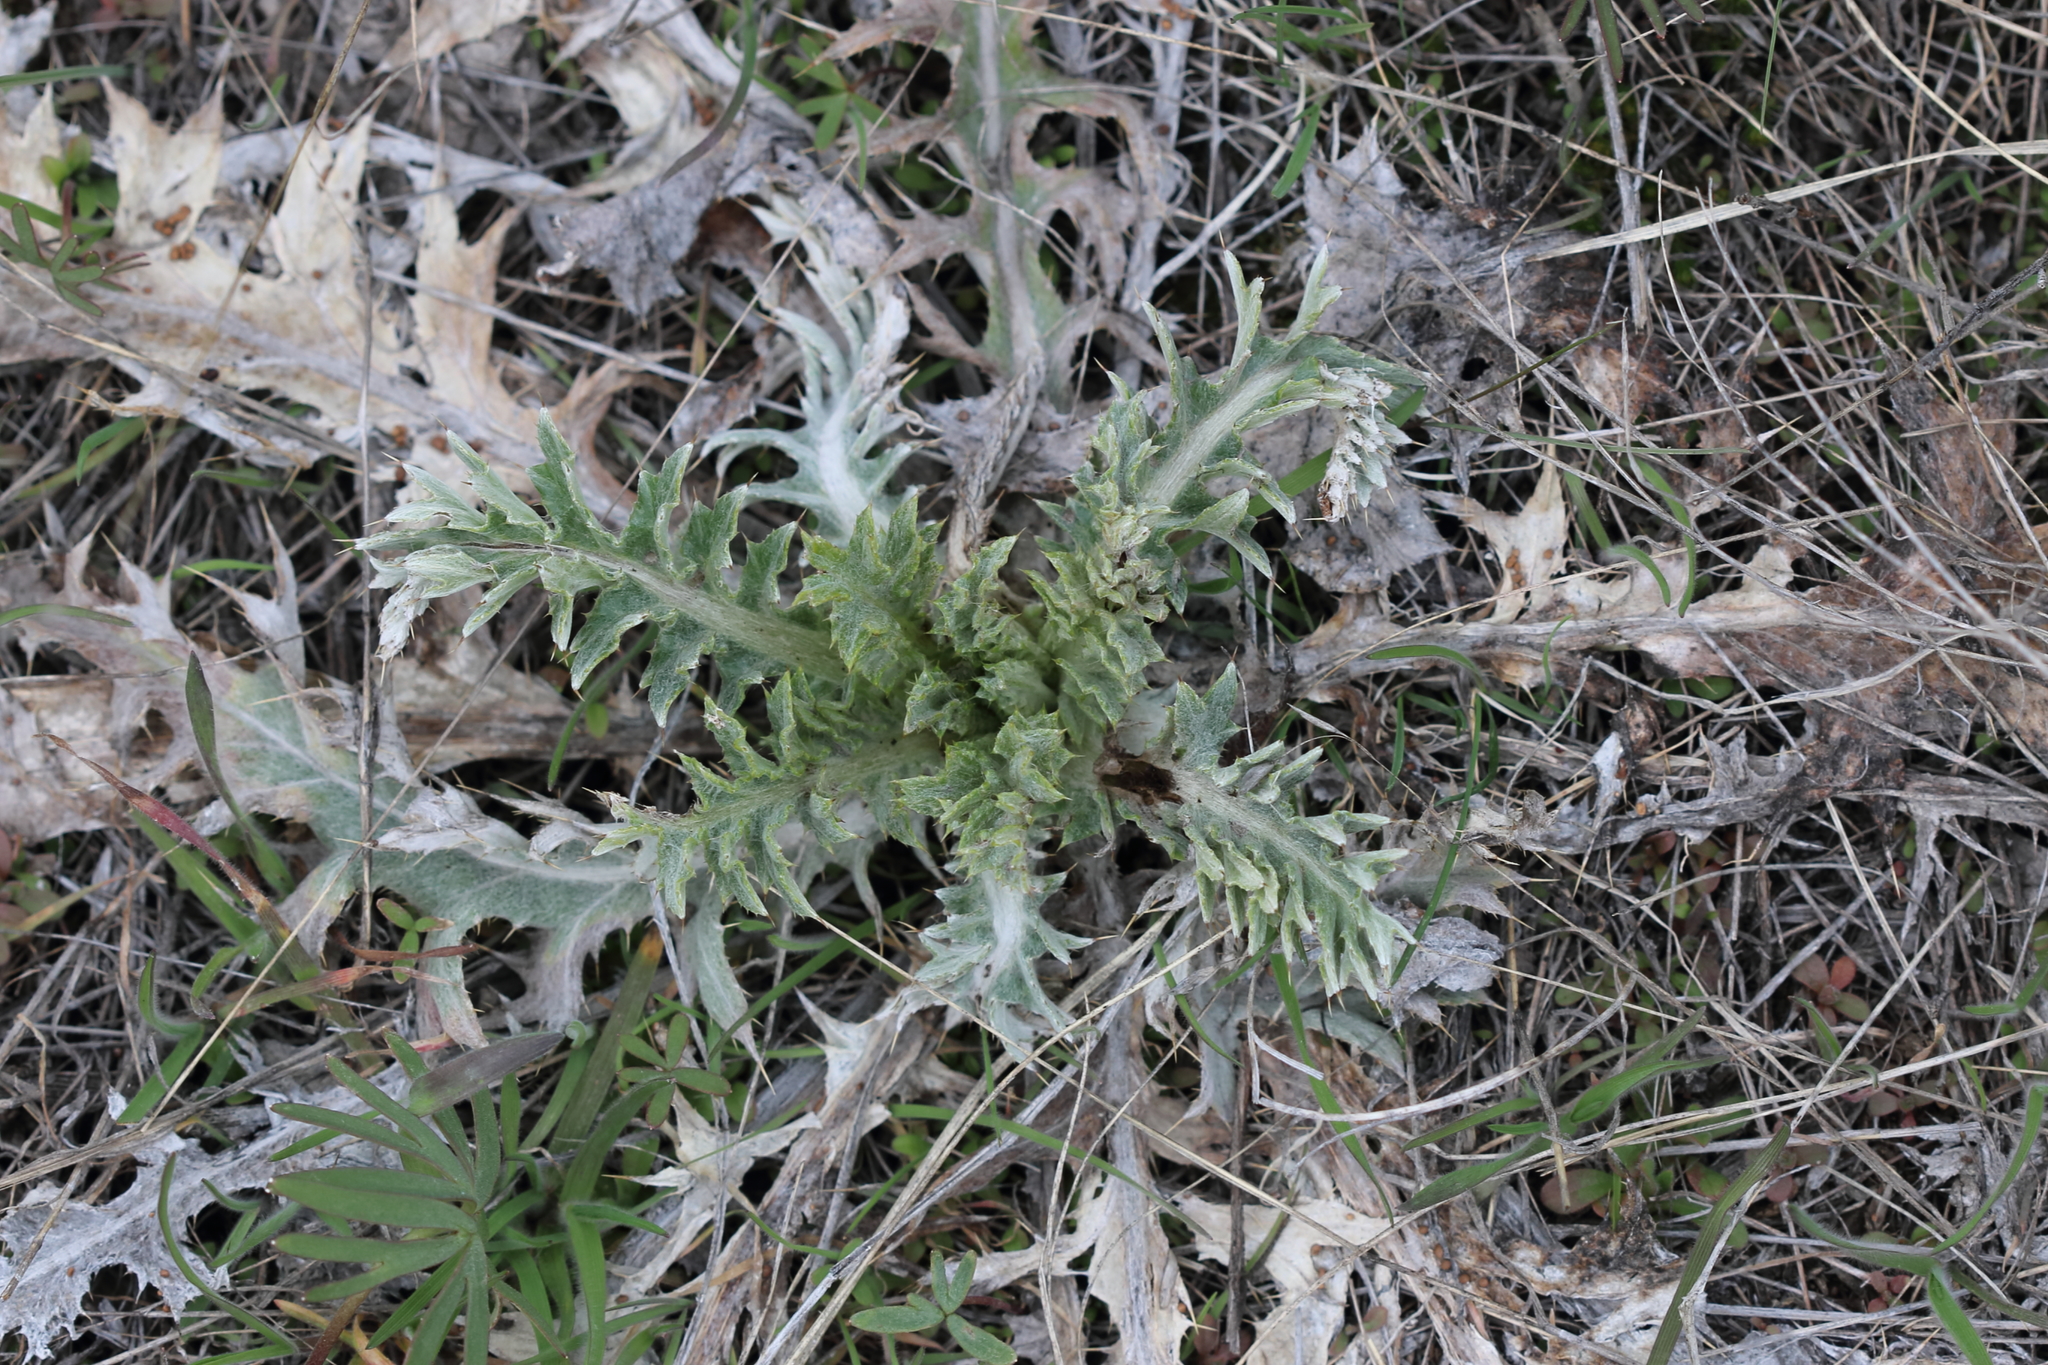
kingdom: Plantae
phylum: Tracheophyta
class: Magnoliopsida
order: Asterales
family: Asteraceae
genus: Cirsium
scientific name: Cirsium undulatum
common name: Pasture thistle
